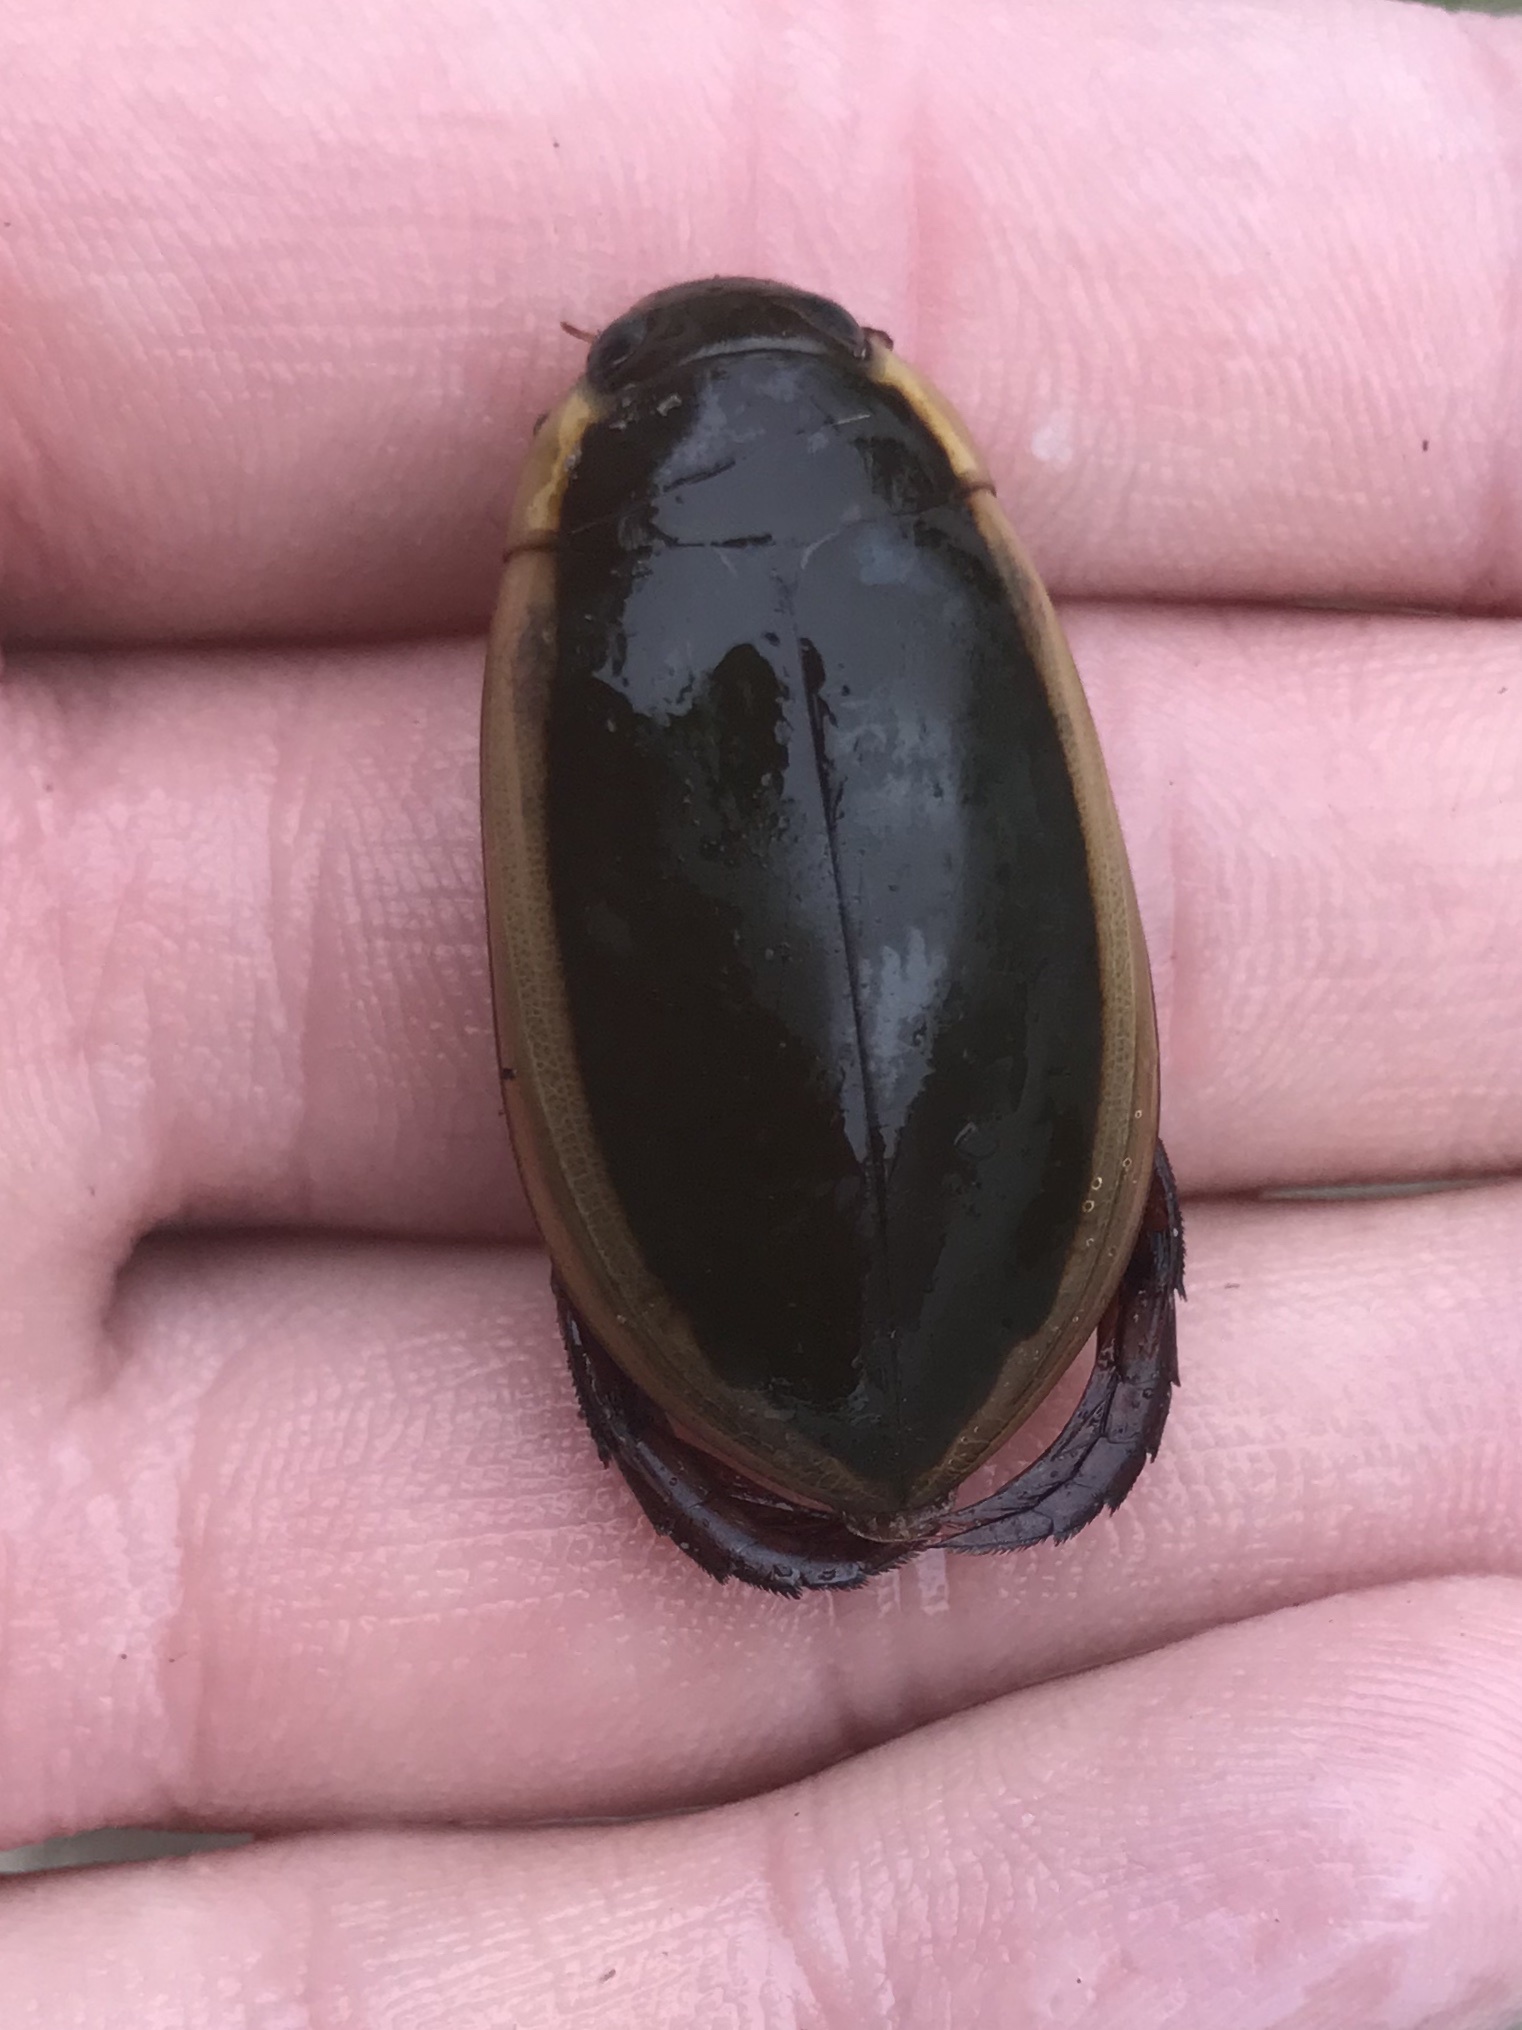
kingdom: Animalia
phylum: Arthropoda
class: Insecta
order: Coleoptera
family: Dytiscidae
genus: Cybister
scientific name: Cybister fimbriolatus
